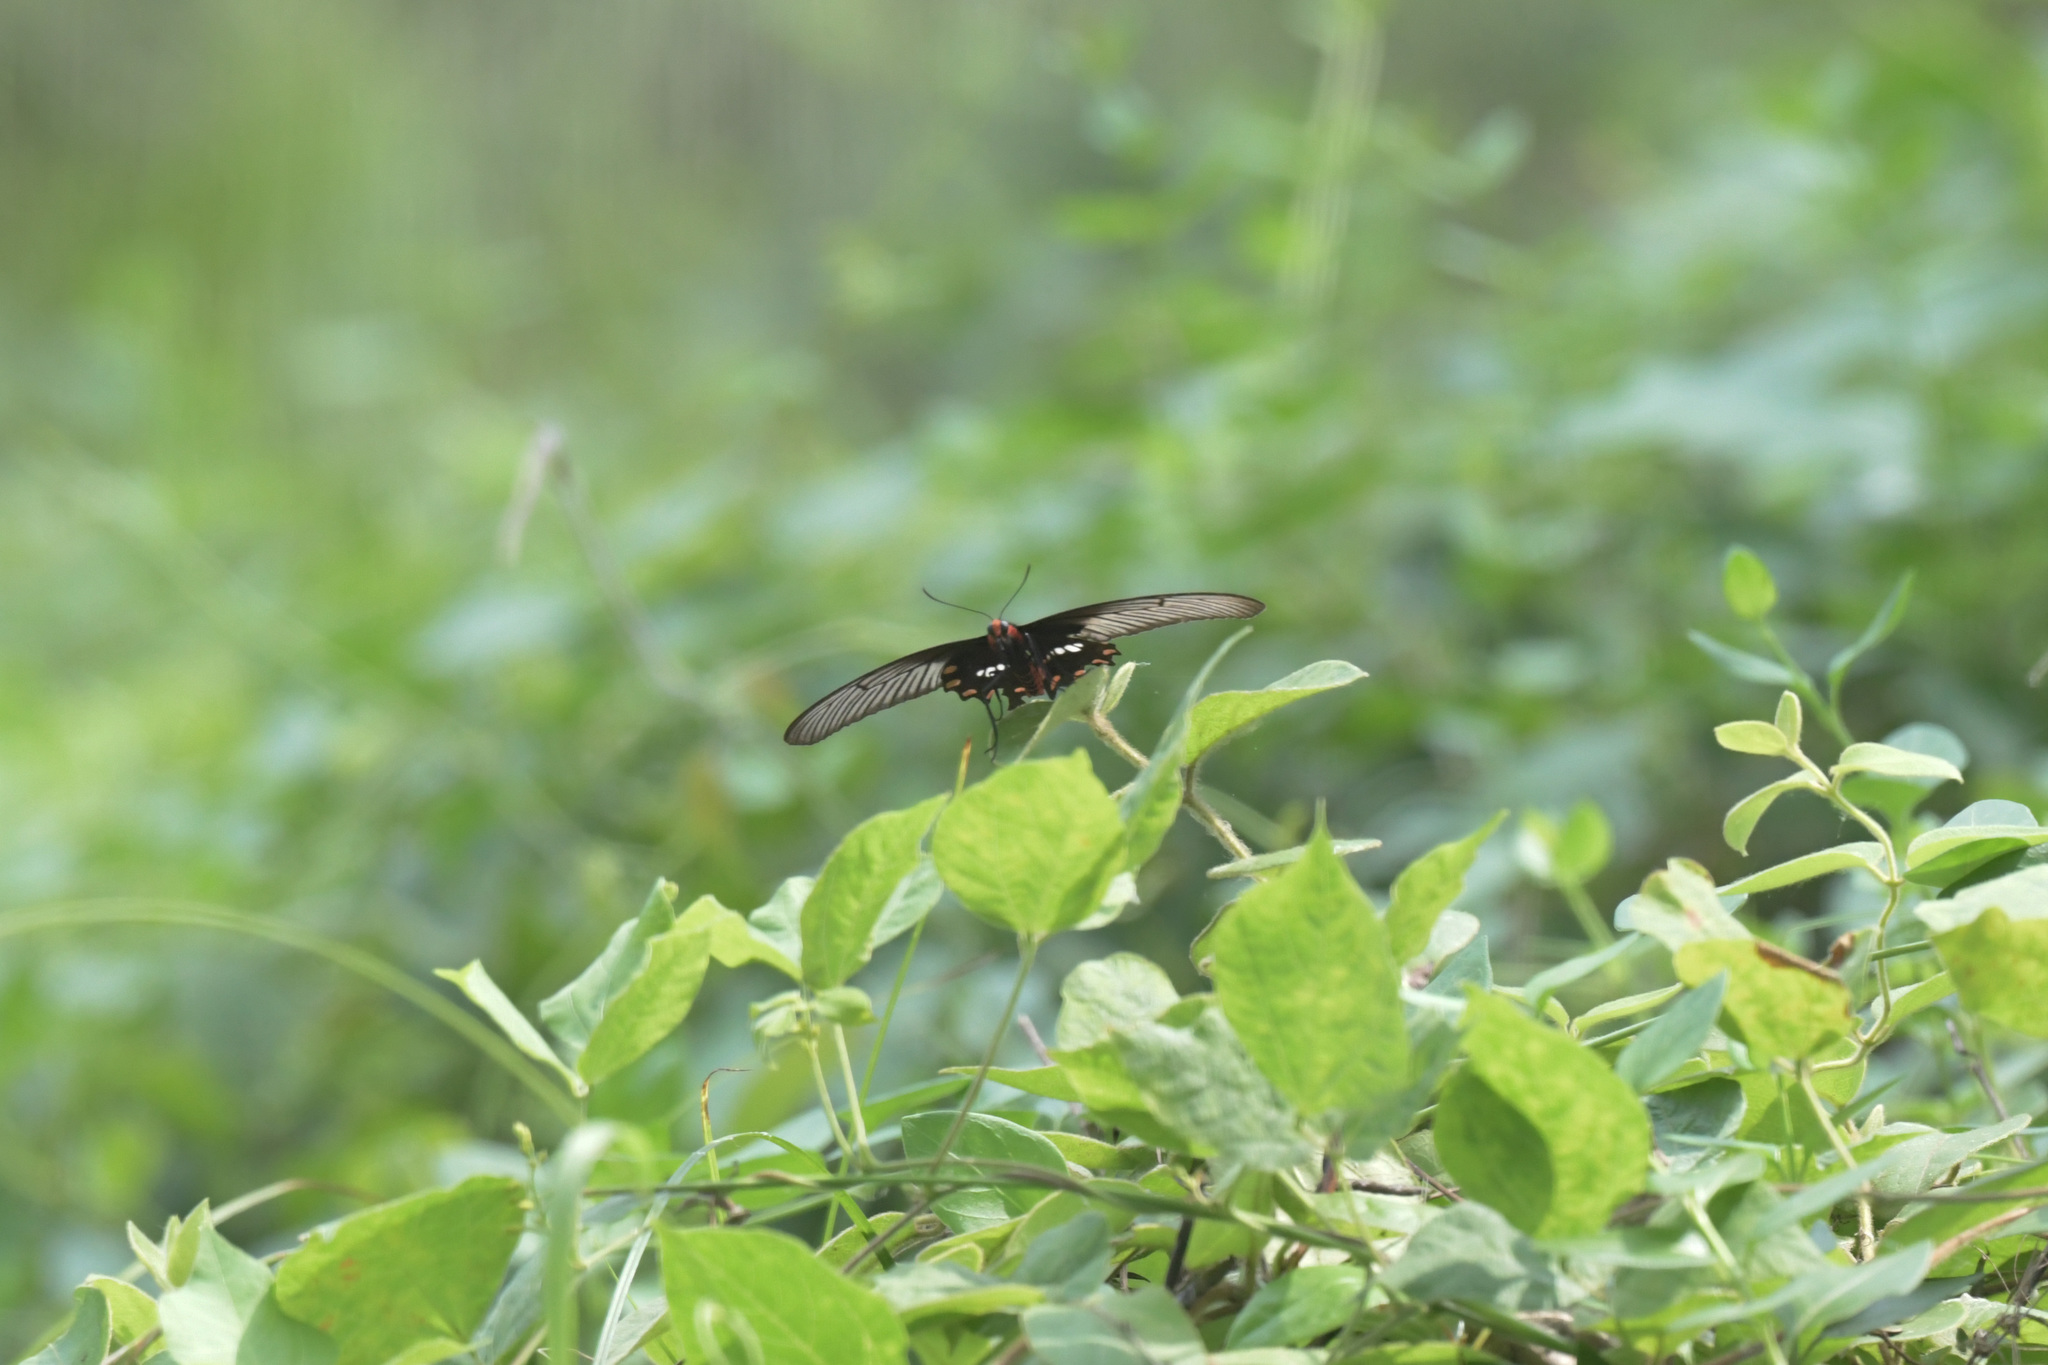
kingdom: Animalia
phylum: Arthropoda
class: Insecta
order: Lepidoptera
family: Papilionidae
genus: Pachliopta
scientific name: Pachliopta aristolochiae
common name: Common rose
